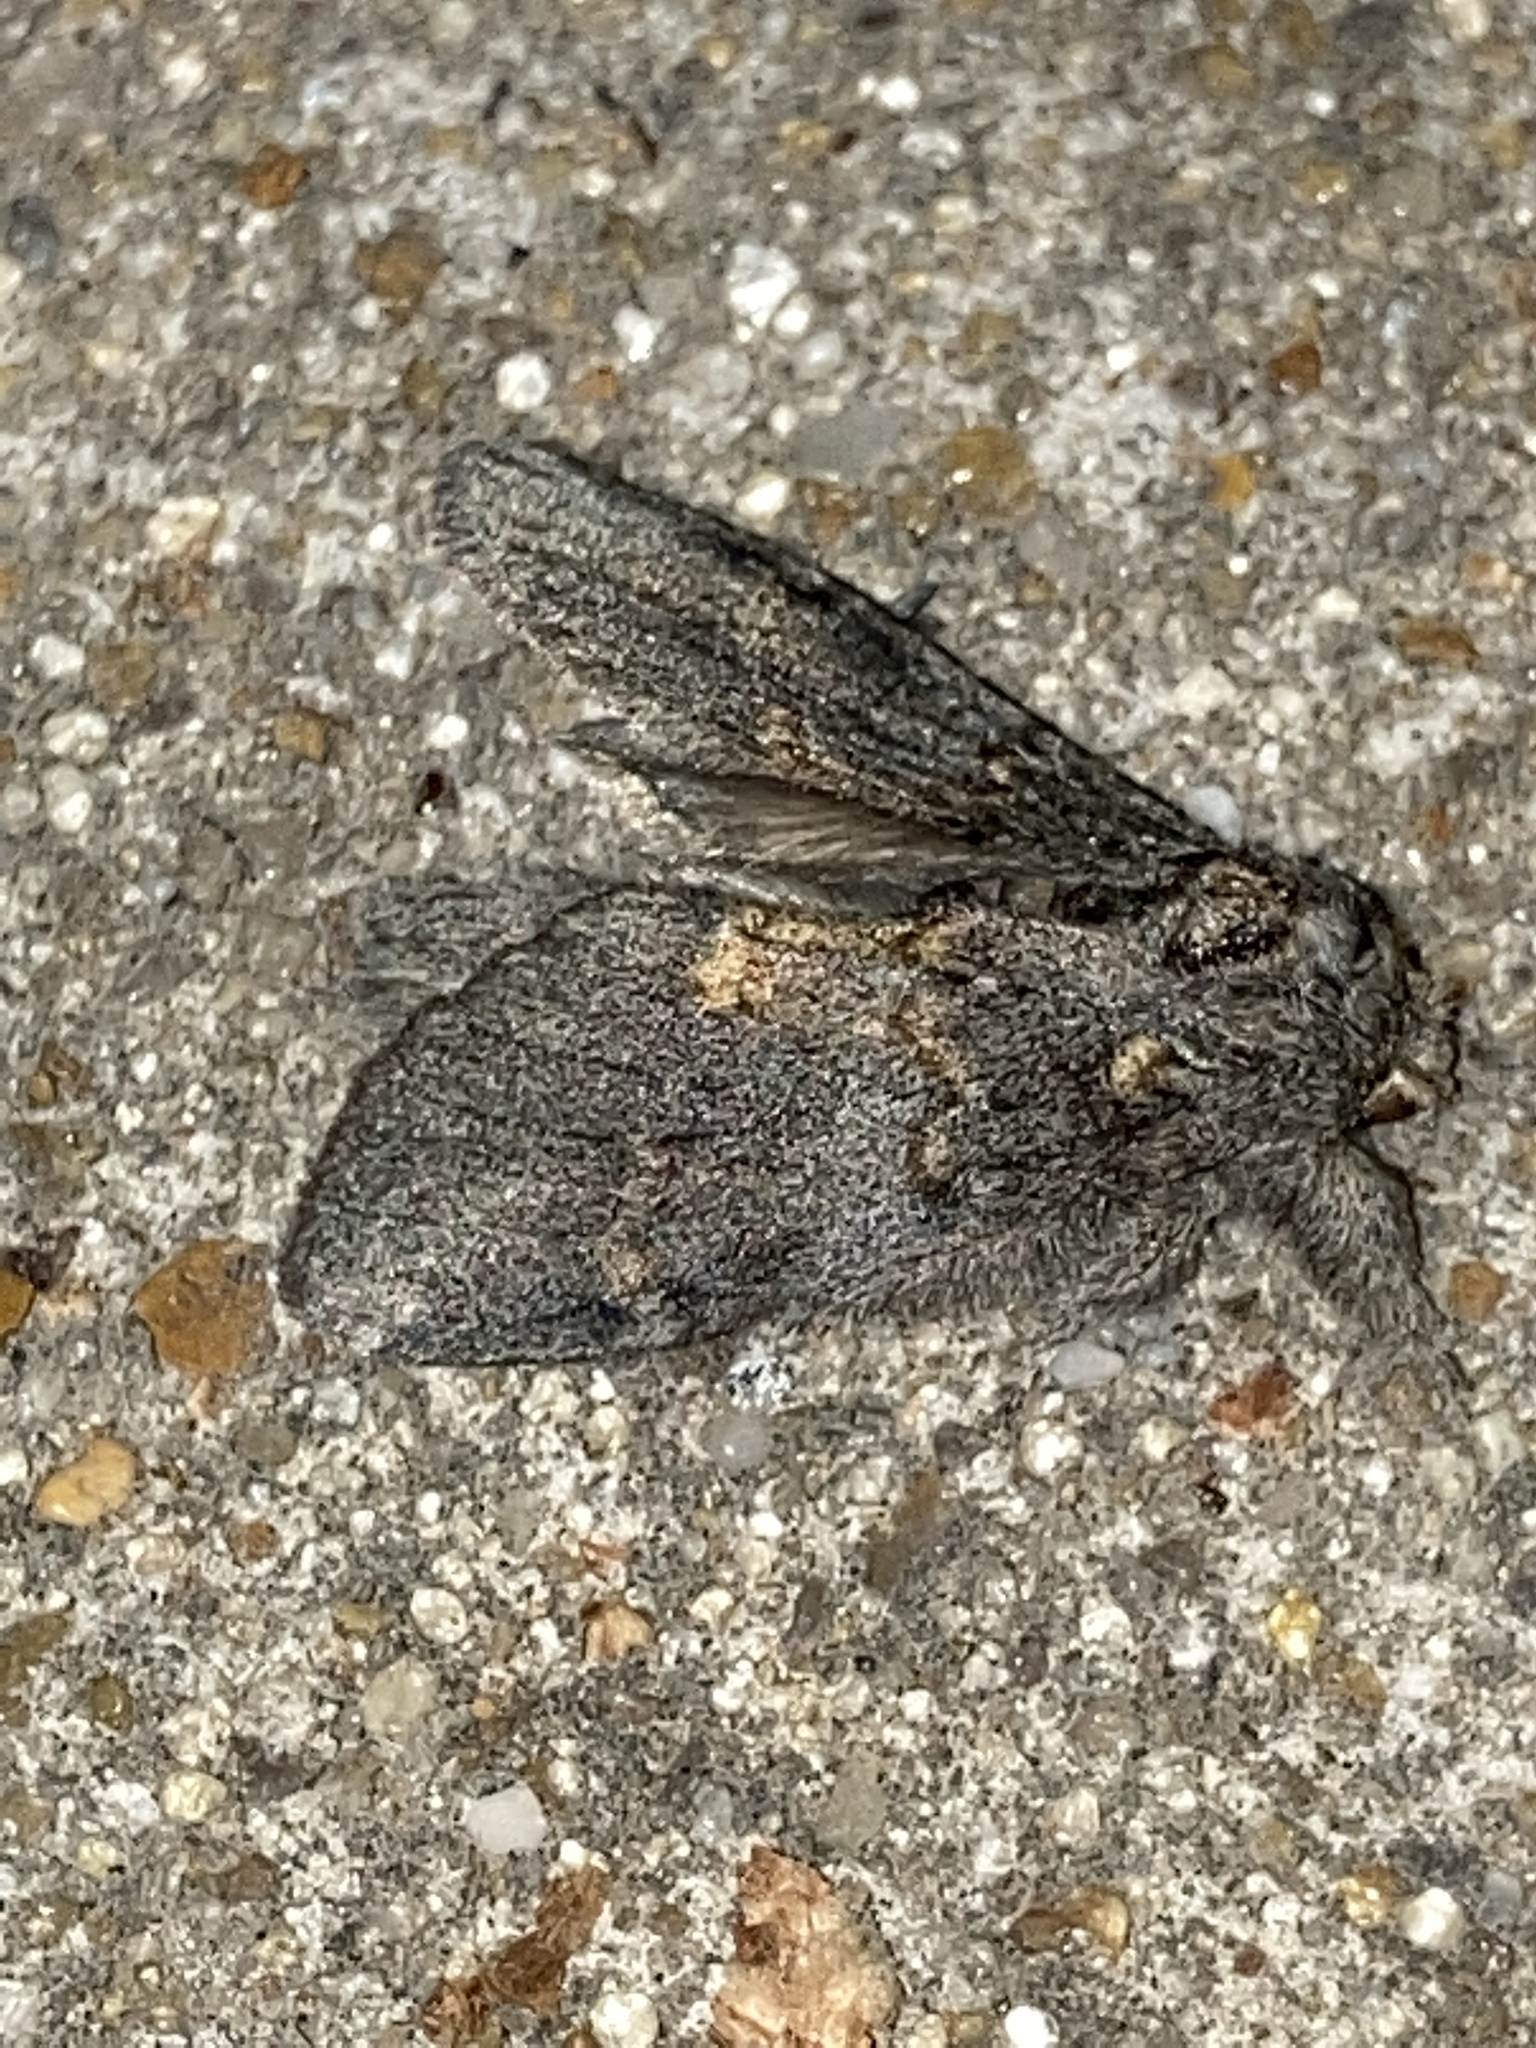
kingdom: Animalia
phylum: Arthropoda
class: Insecta
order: Lepidoptera
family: Notodontidae
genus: Peridea
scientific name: Peridea angulosa
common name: Angulose prominent
